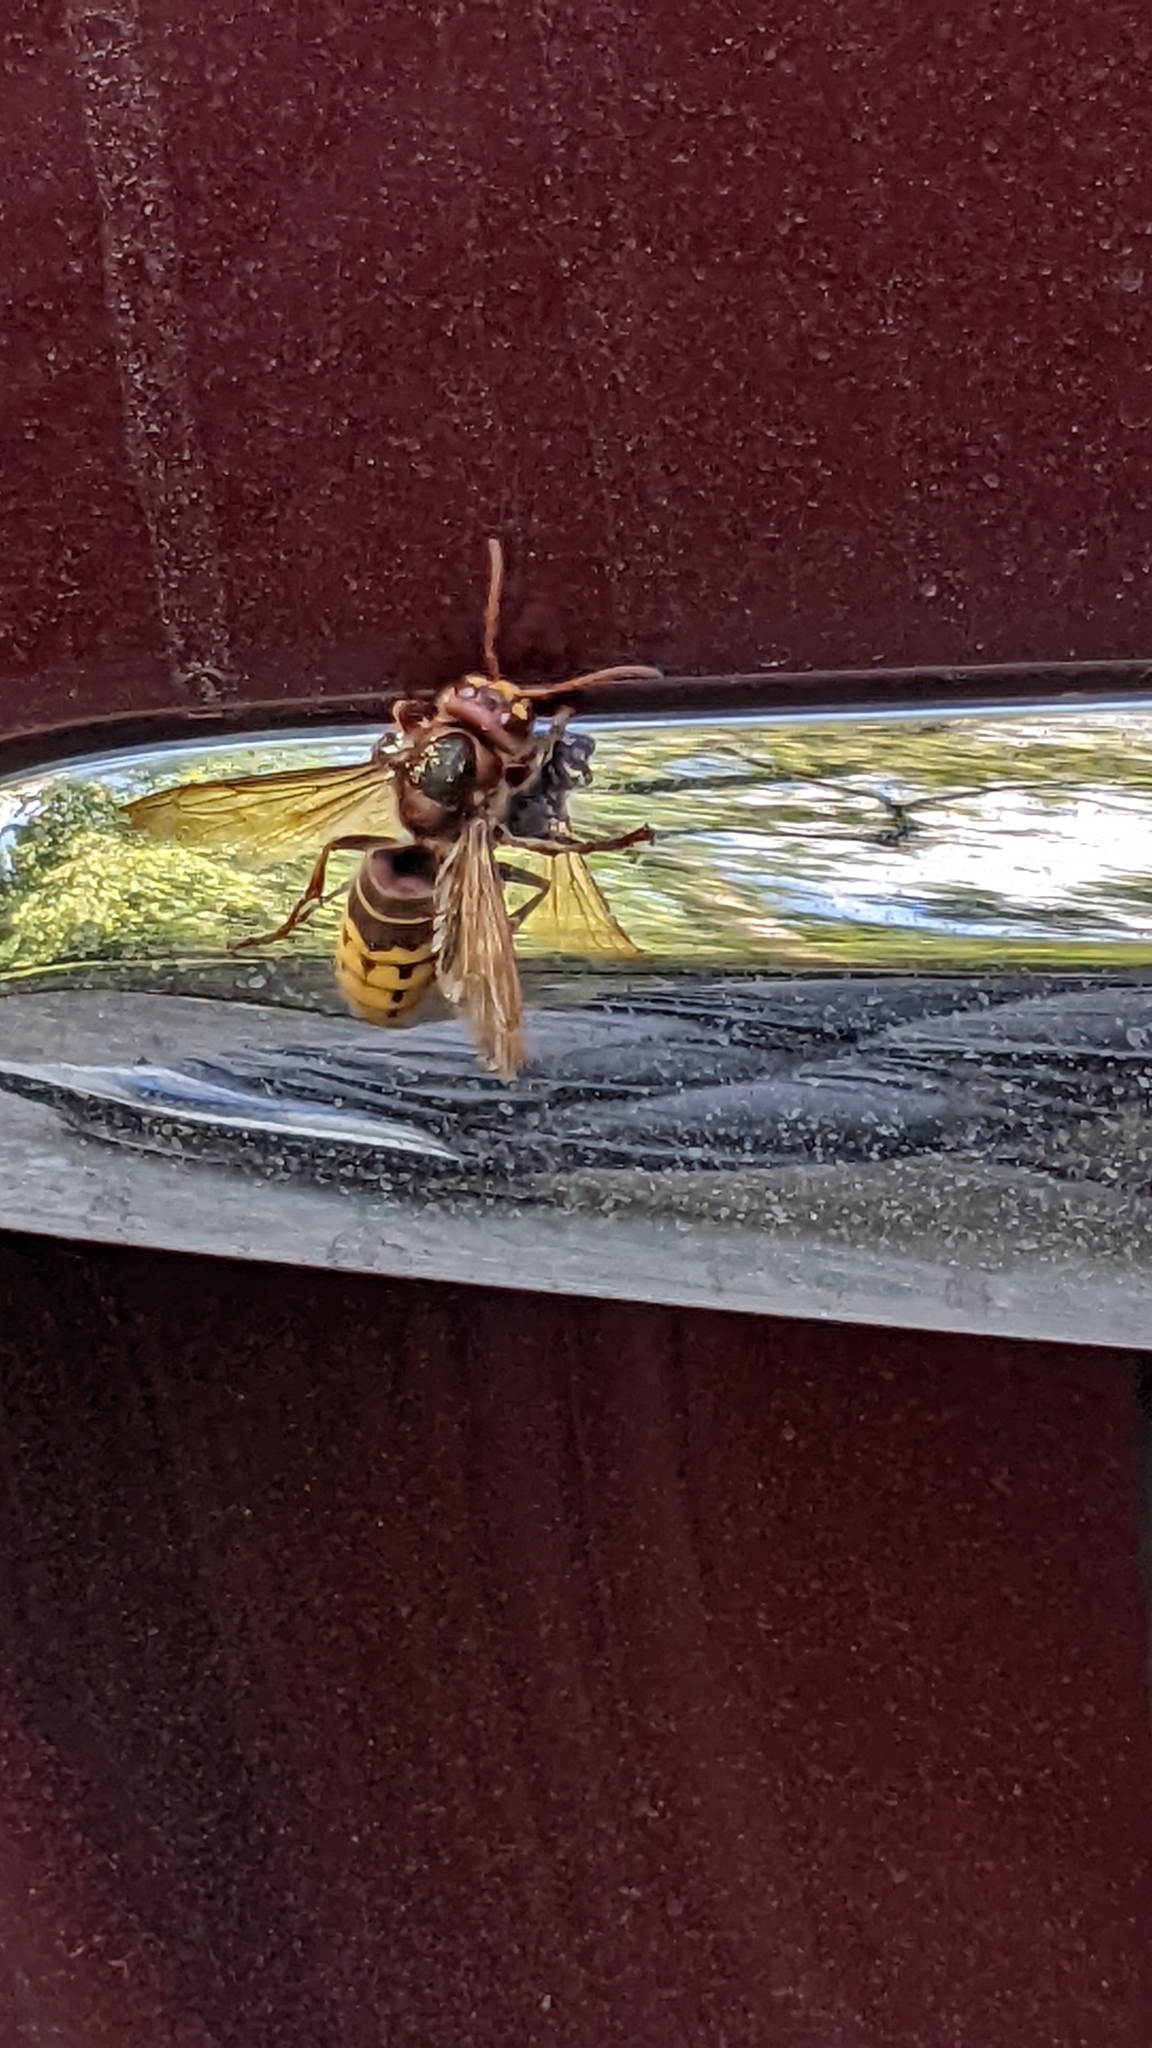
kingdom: Animalia
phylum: Arthropoda
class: Insecta
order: Hymenoptera
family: Vespidae
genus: Vespa
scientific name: Vespa crabro
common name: Hornet
